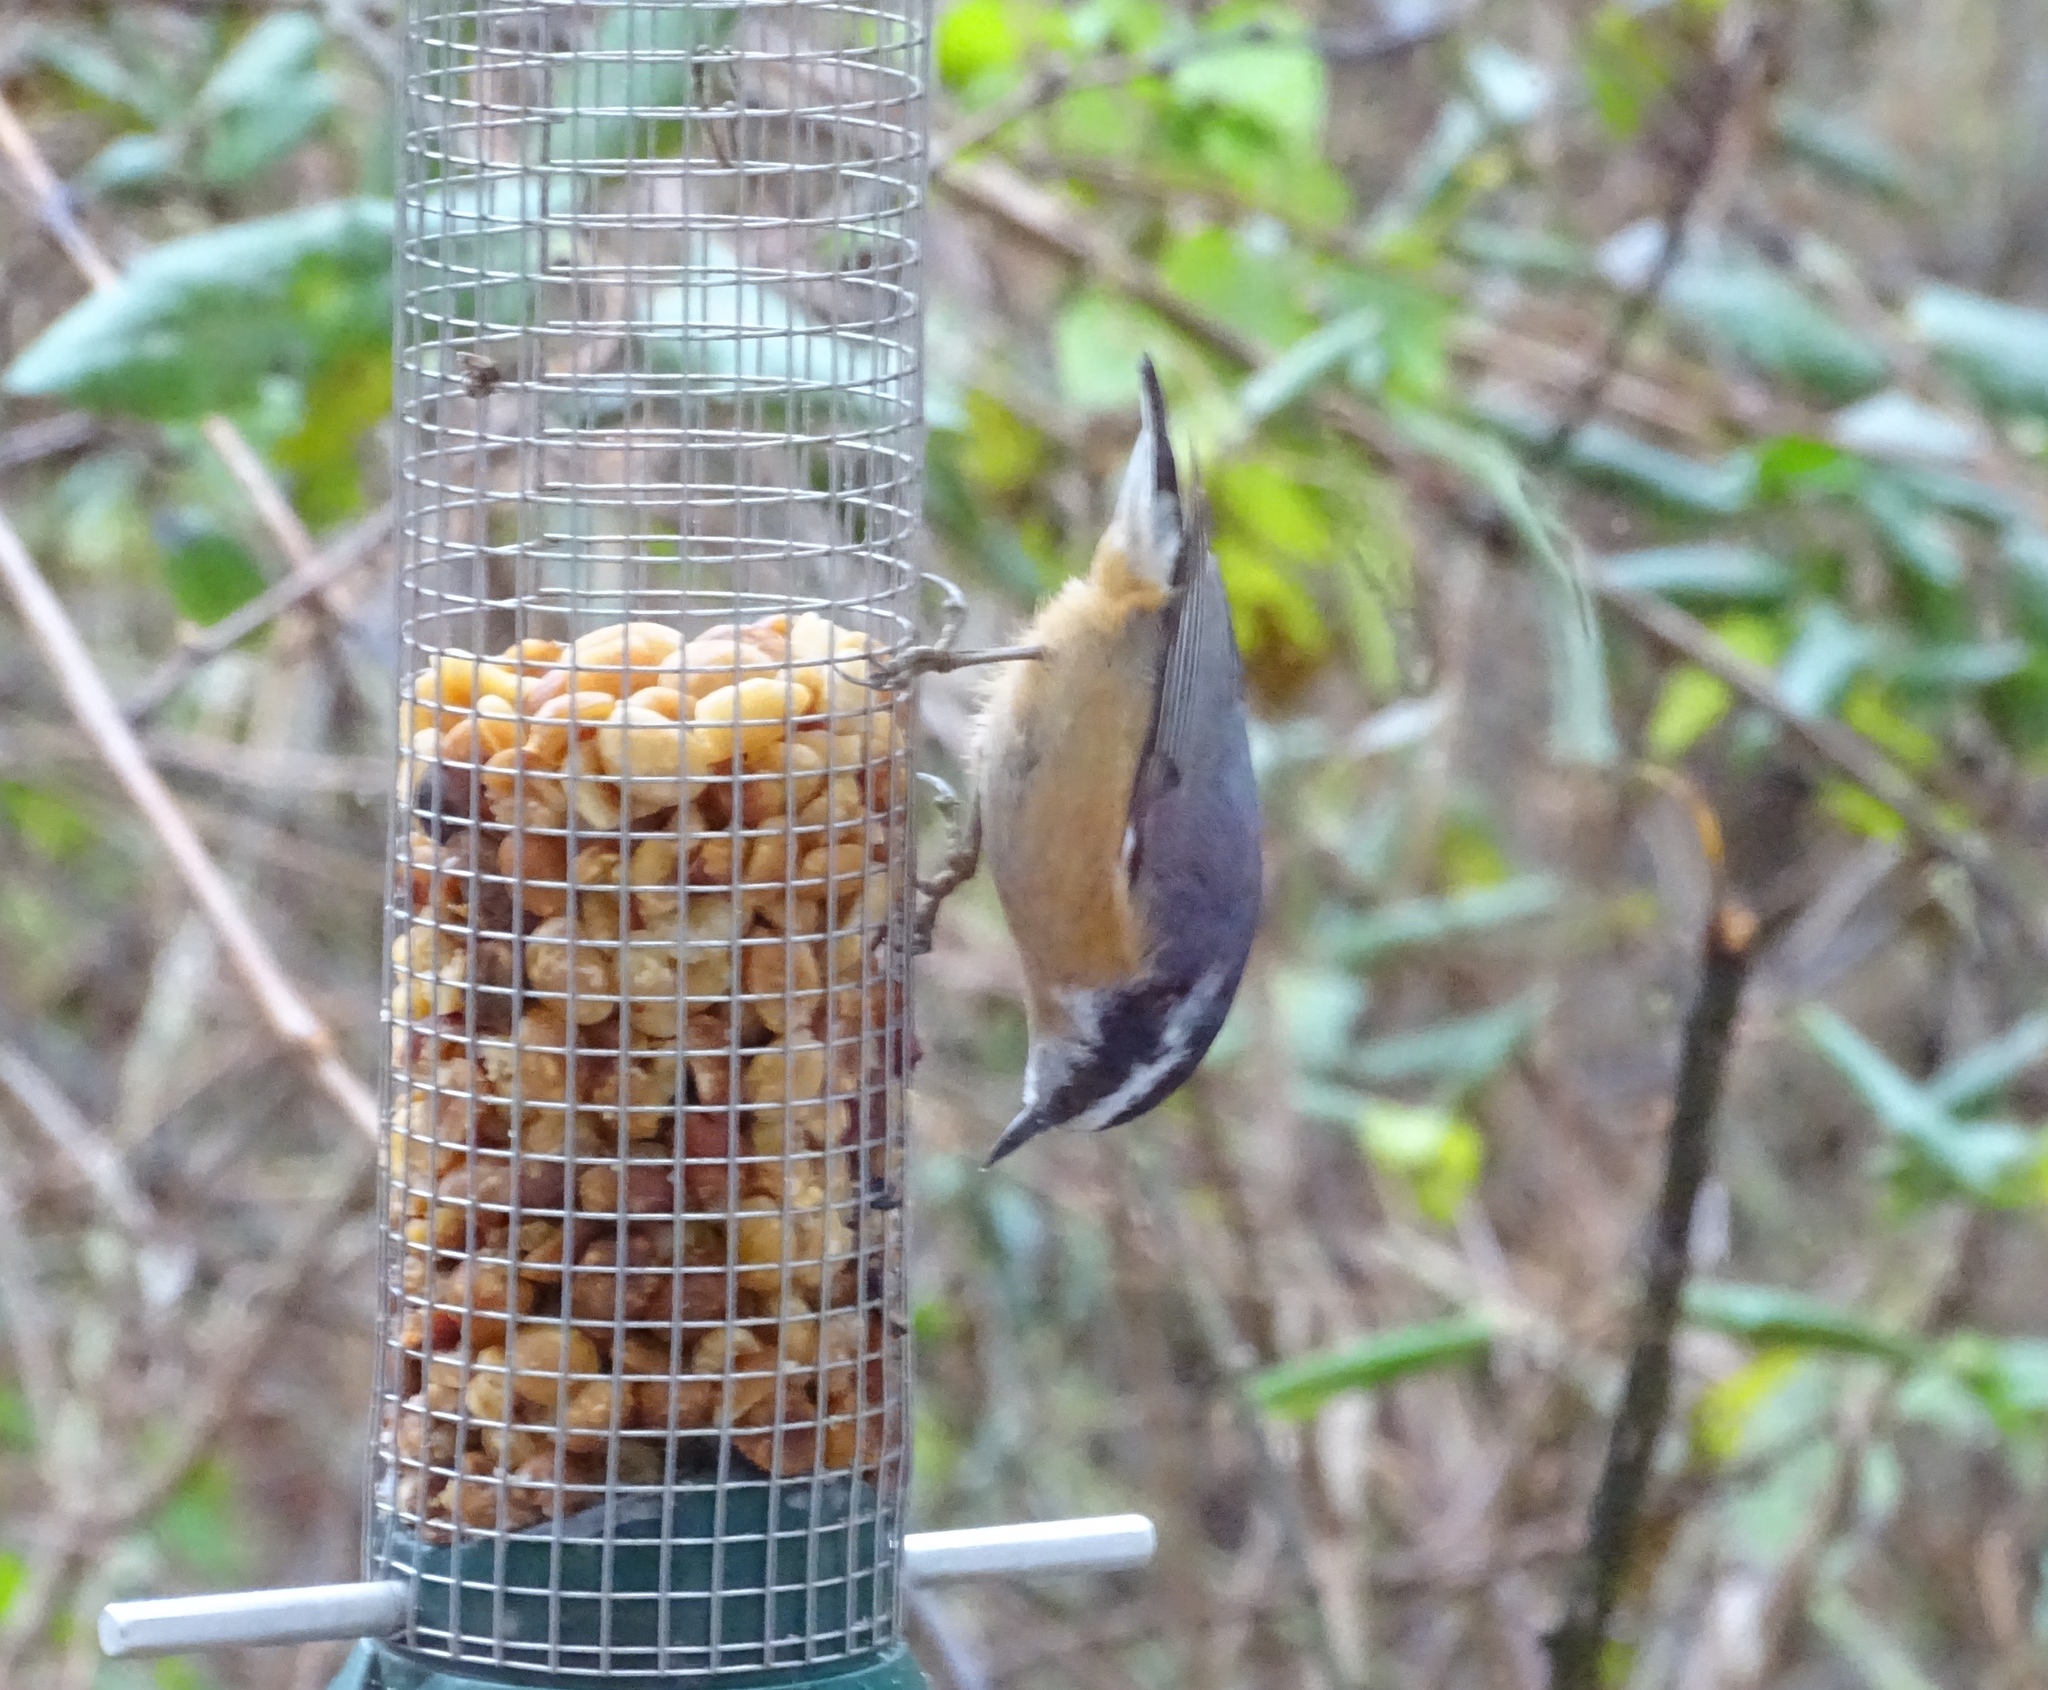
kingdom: Animalia
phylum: Chordata
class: Aves
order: Passeriformes
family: Sittidae
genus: Sitta
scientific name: Sitta canadensis
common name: Red-breasted nuthatch
